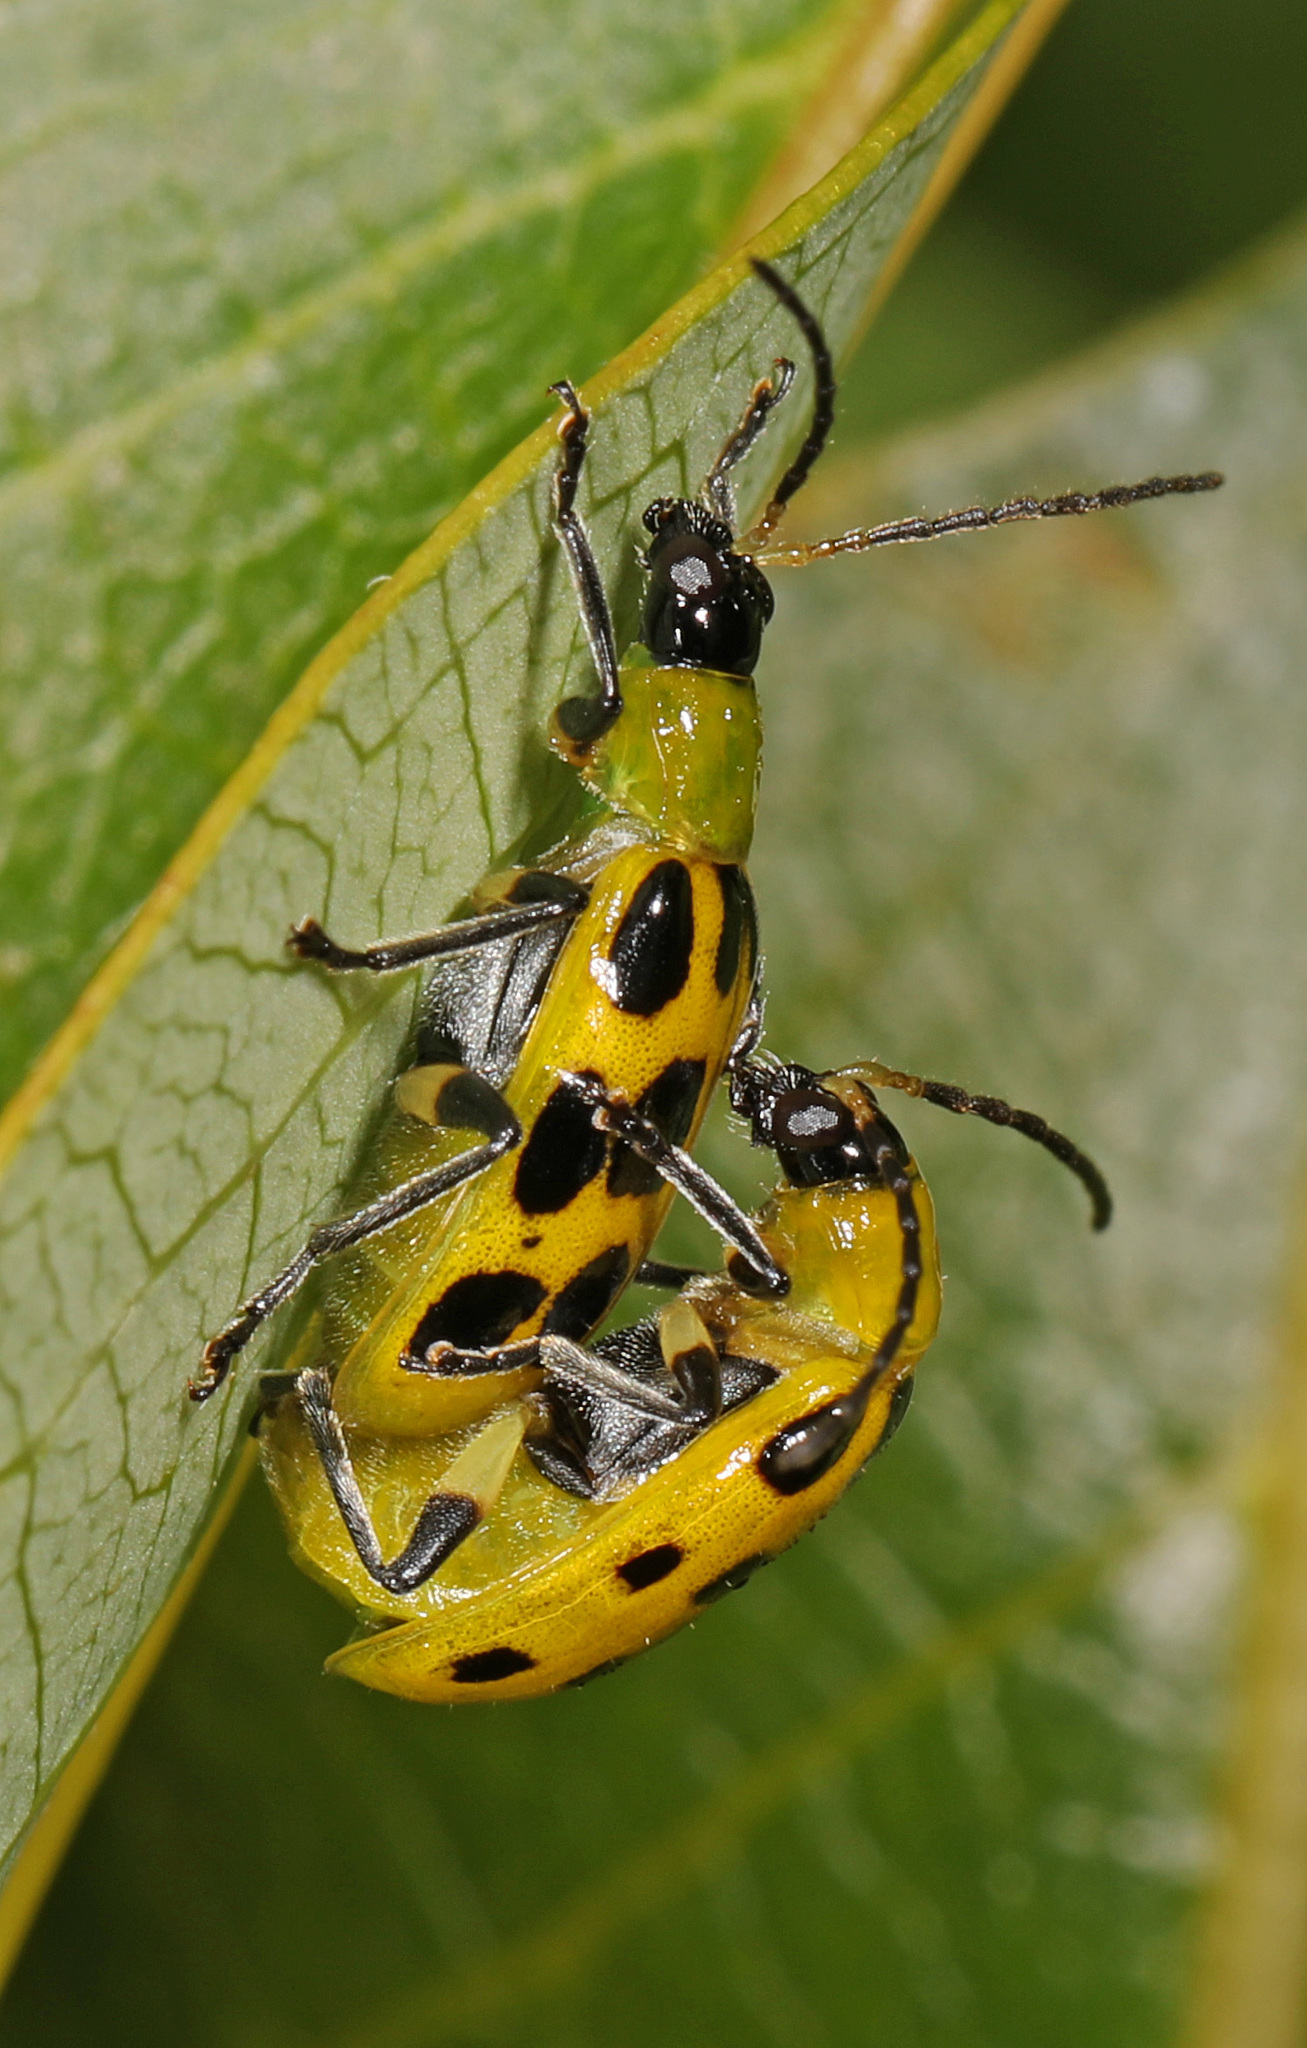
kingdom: Animalia
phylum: Arthropoda
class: Insecta
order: Coleoptera
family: Chrysomelidae
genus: Diabrotica
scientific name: Diabrotica undecimpunctata
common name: Spotted cucumber beetle
